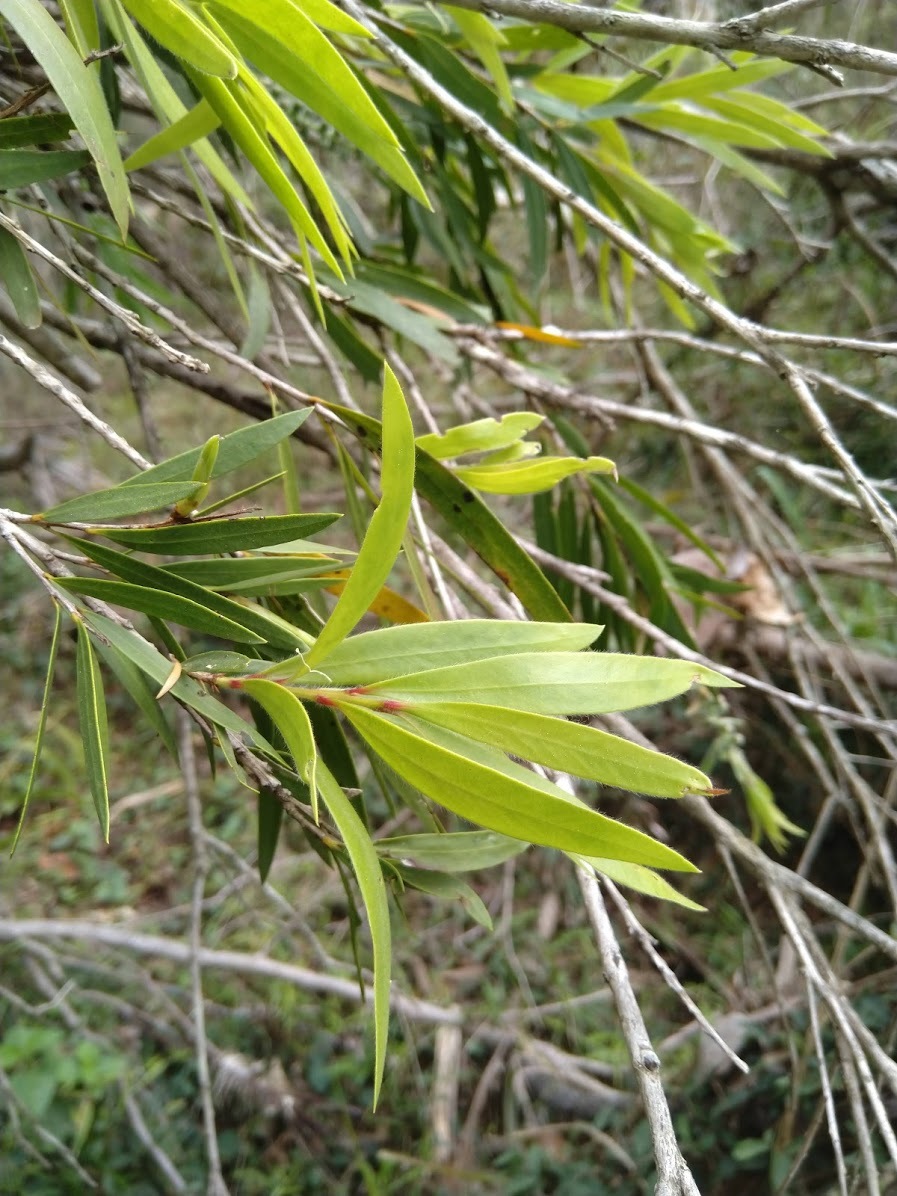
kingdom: Plantae
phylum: Tracheophyta
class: Magnoliopsida
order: Myrtales
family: Myrtaceae
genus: Callistemon
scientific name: Callistemon viminalis
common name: Drooping bottlebrush
